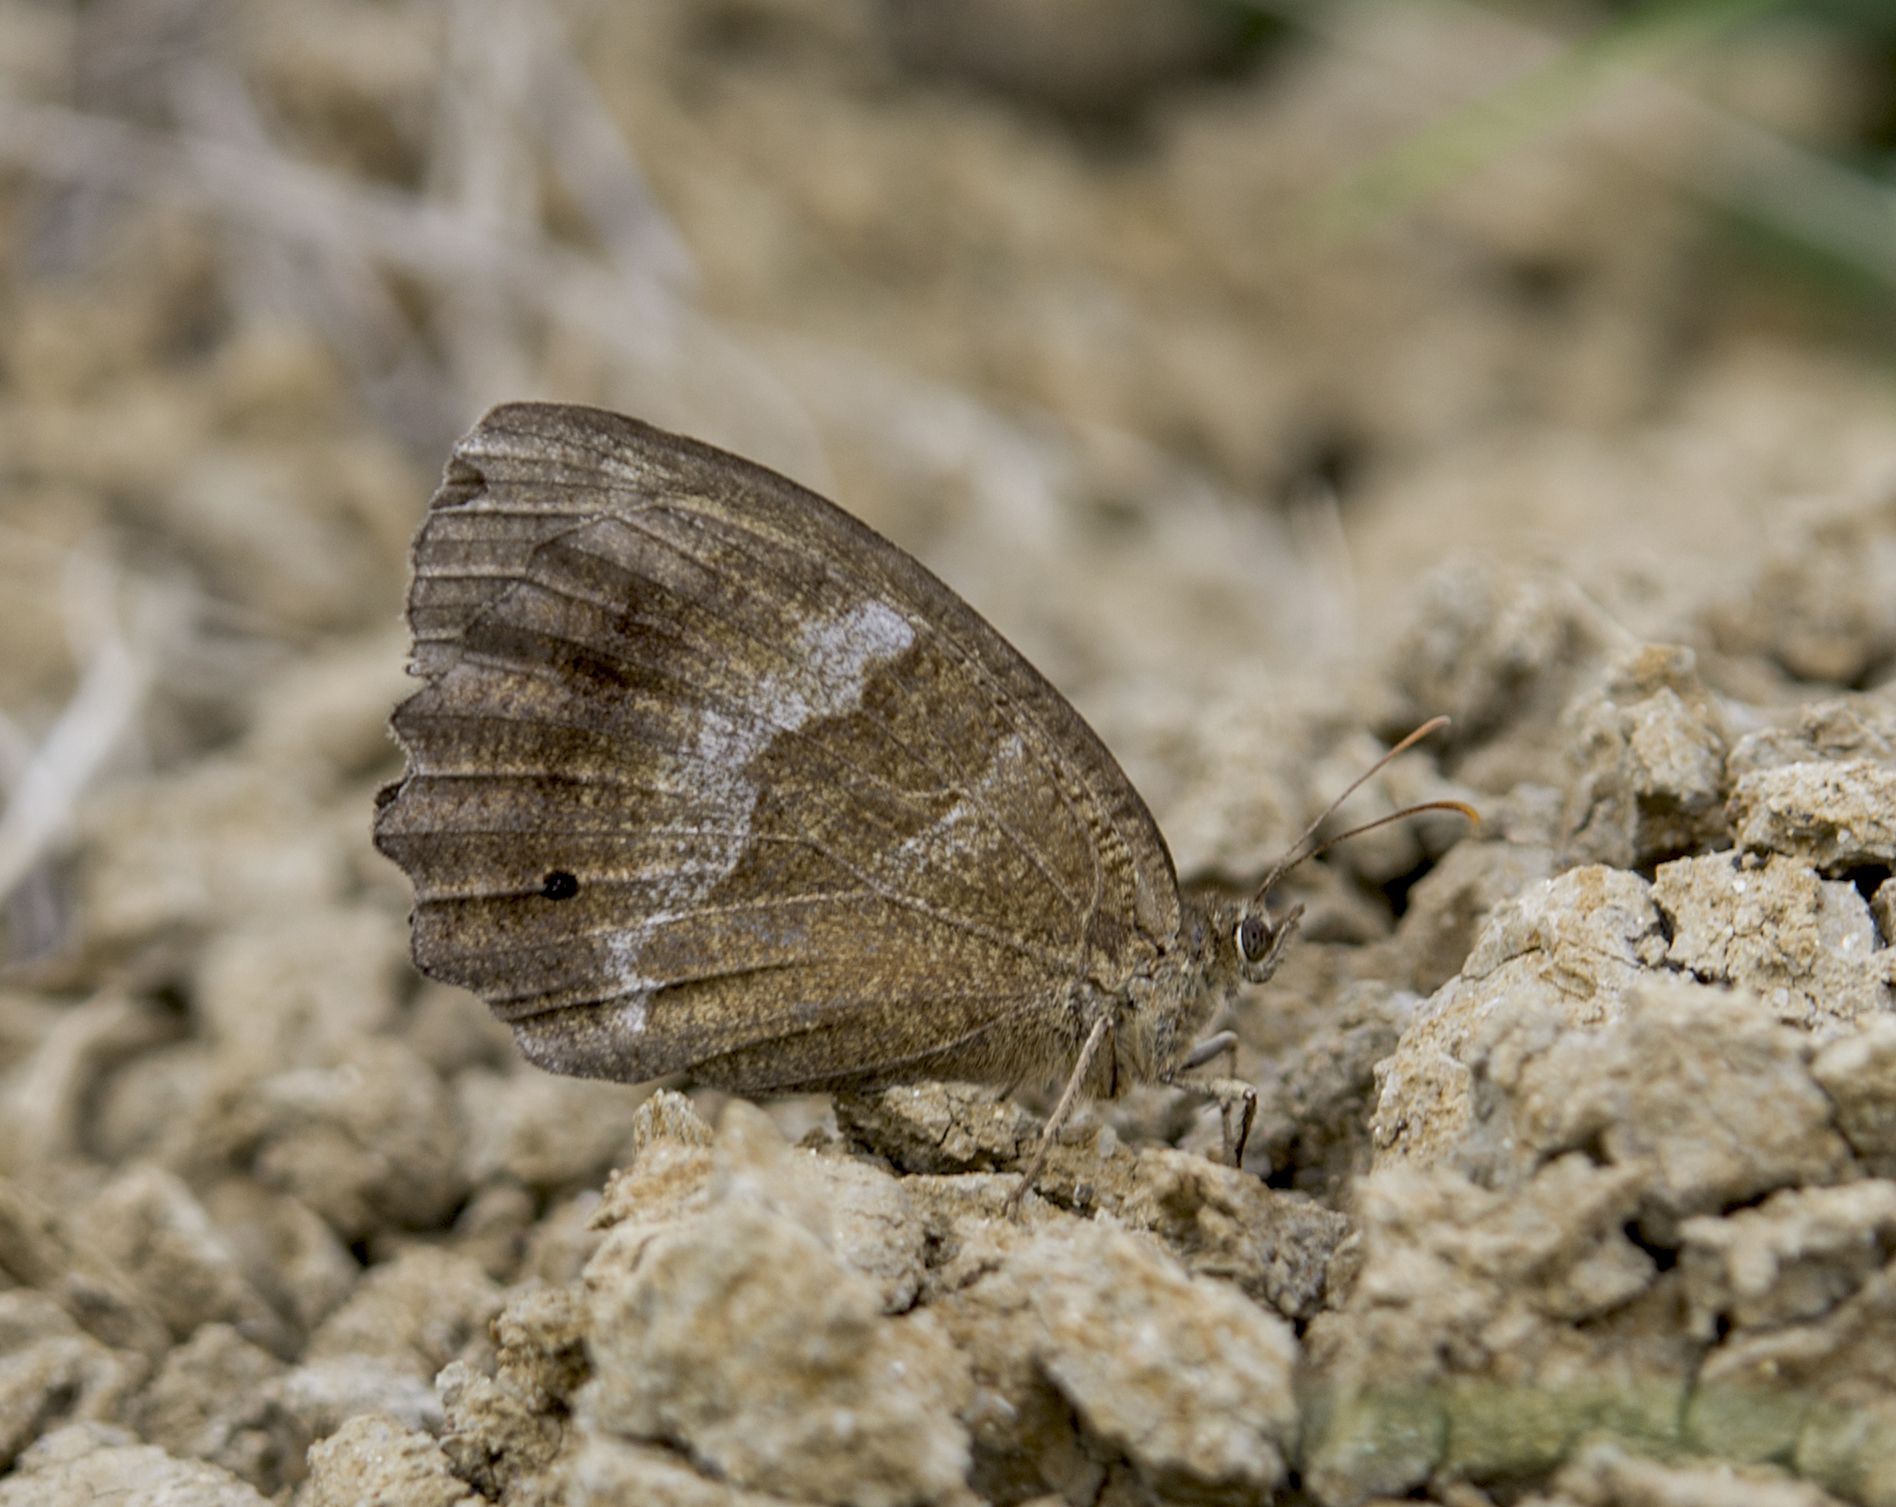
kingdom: Animalia
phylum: Arthropoda
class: Insecta
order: Lepidoptera
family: Nymphalidae
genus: Minois
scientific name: Minois dryas
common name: Dryad
